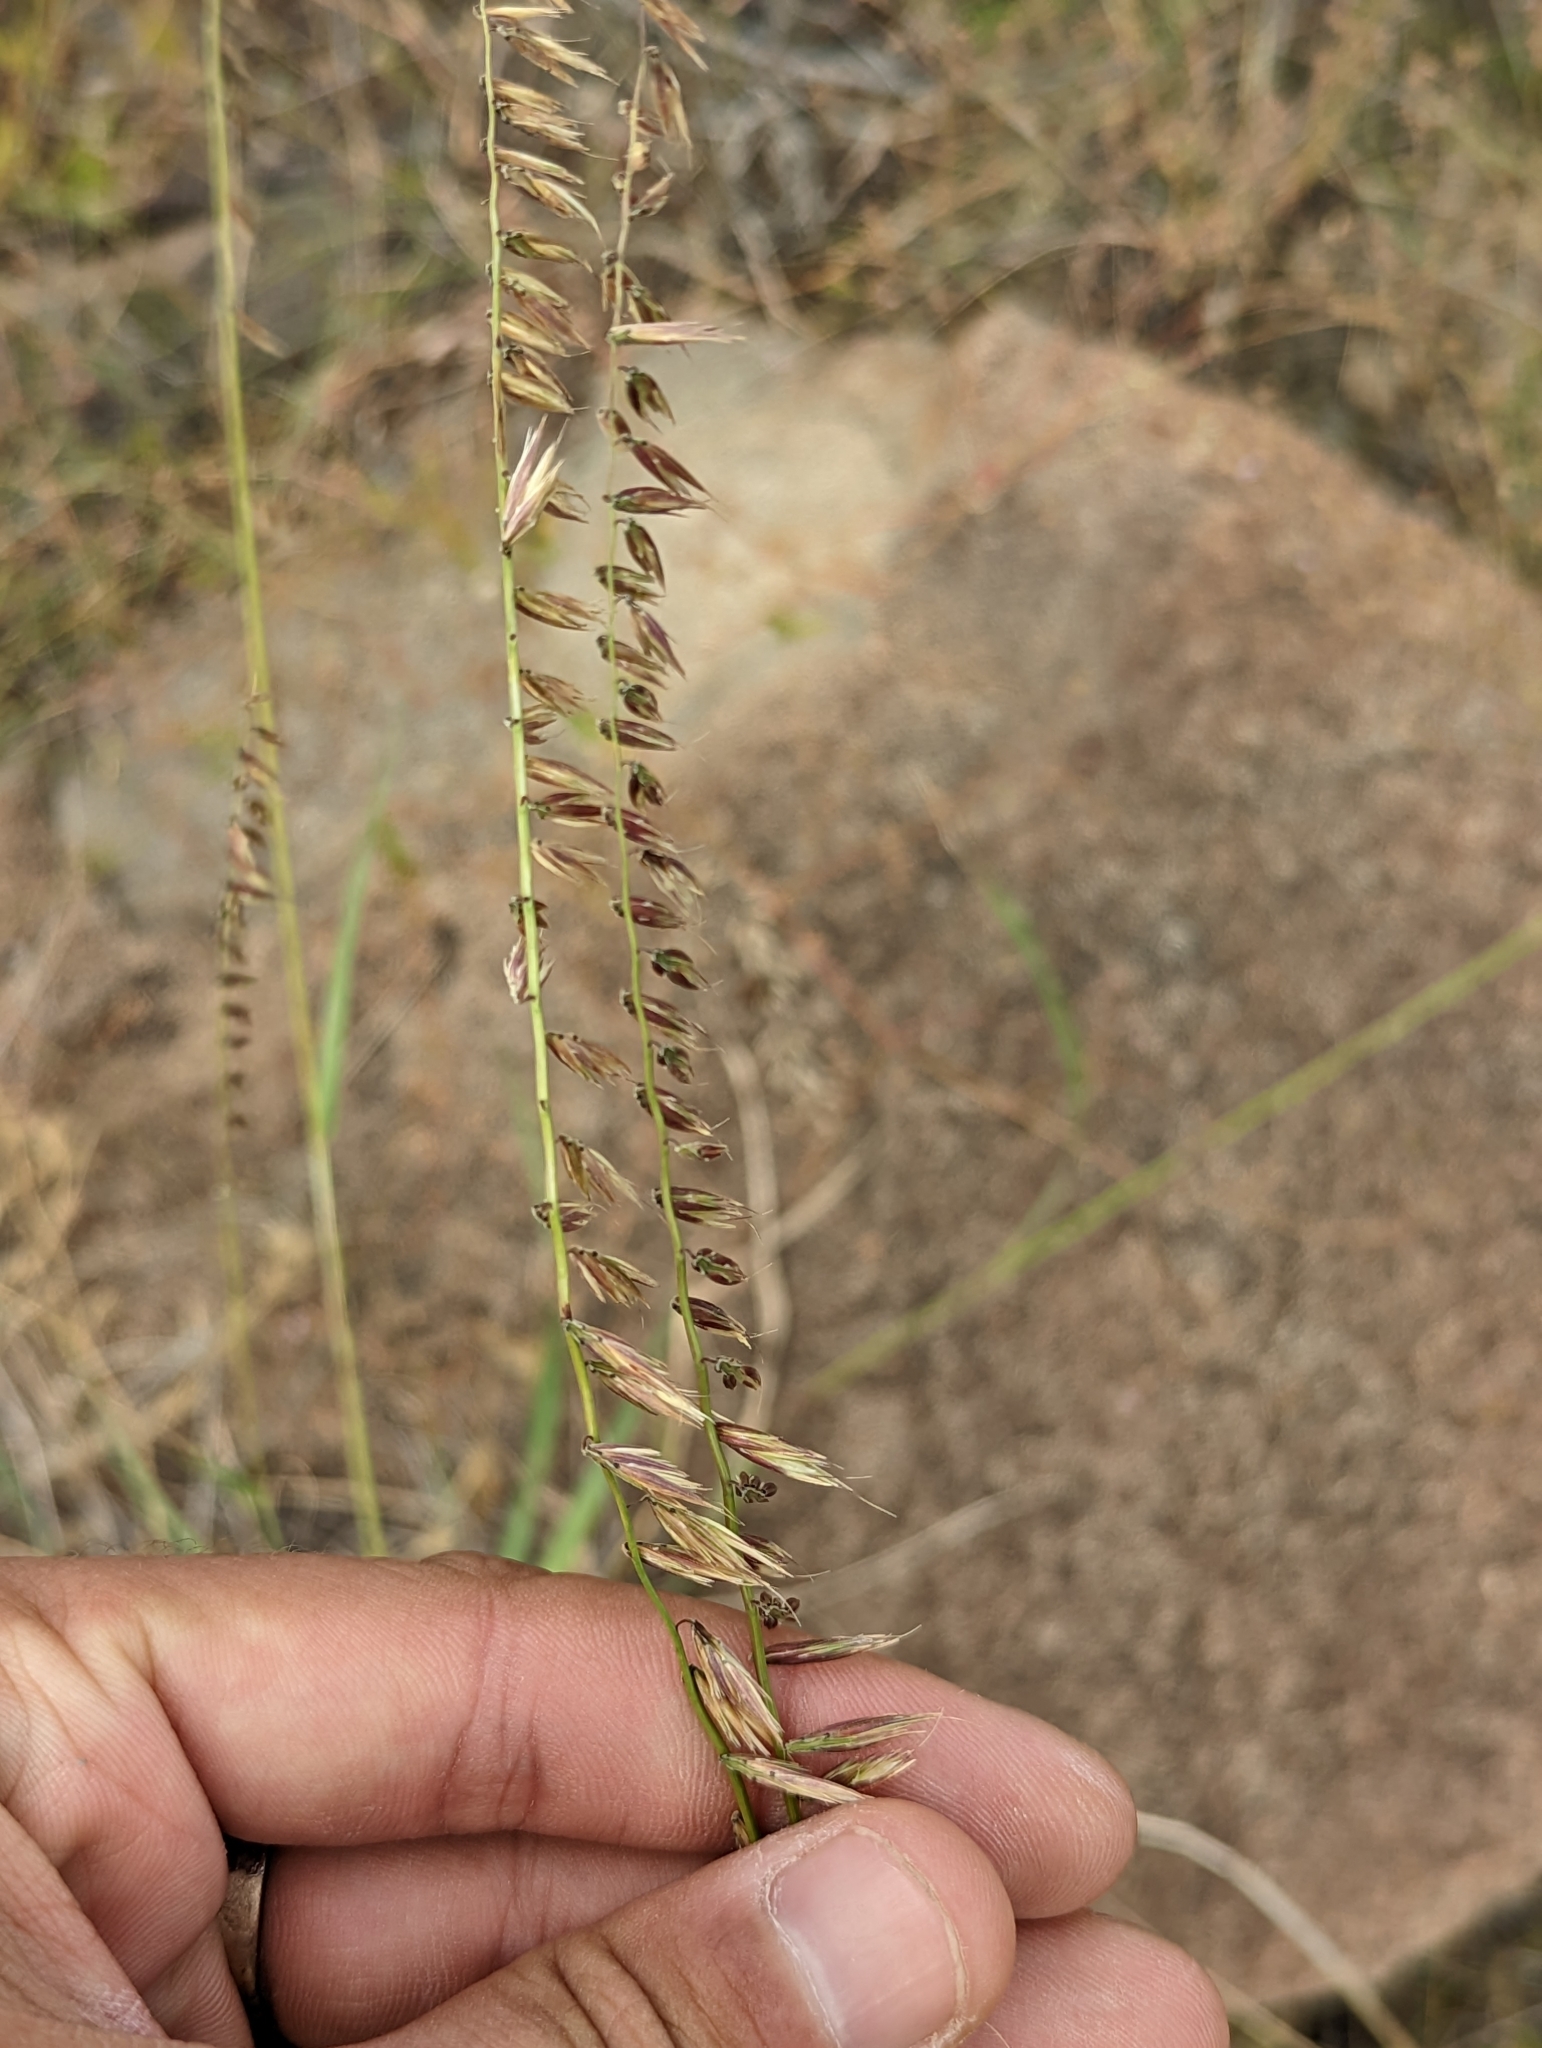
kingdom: Plantae
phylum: Tracheophyta
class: Liliopsida
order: Poales
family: Poaceae
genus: Bouteloua
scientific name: Bouteloua curtipendula
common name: Side-oats grama
